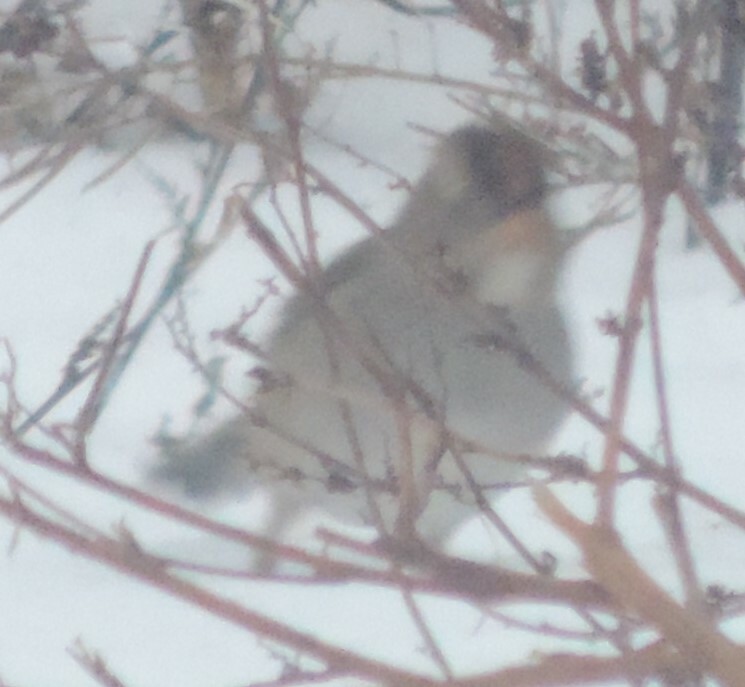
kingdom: Animalia
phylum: Chordata
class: Aves
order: Passeriformes
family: Passerellidae
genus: Zonotrichia
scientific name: Zonotrichia leucophrys
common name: White-crowned sparrow
